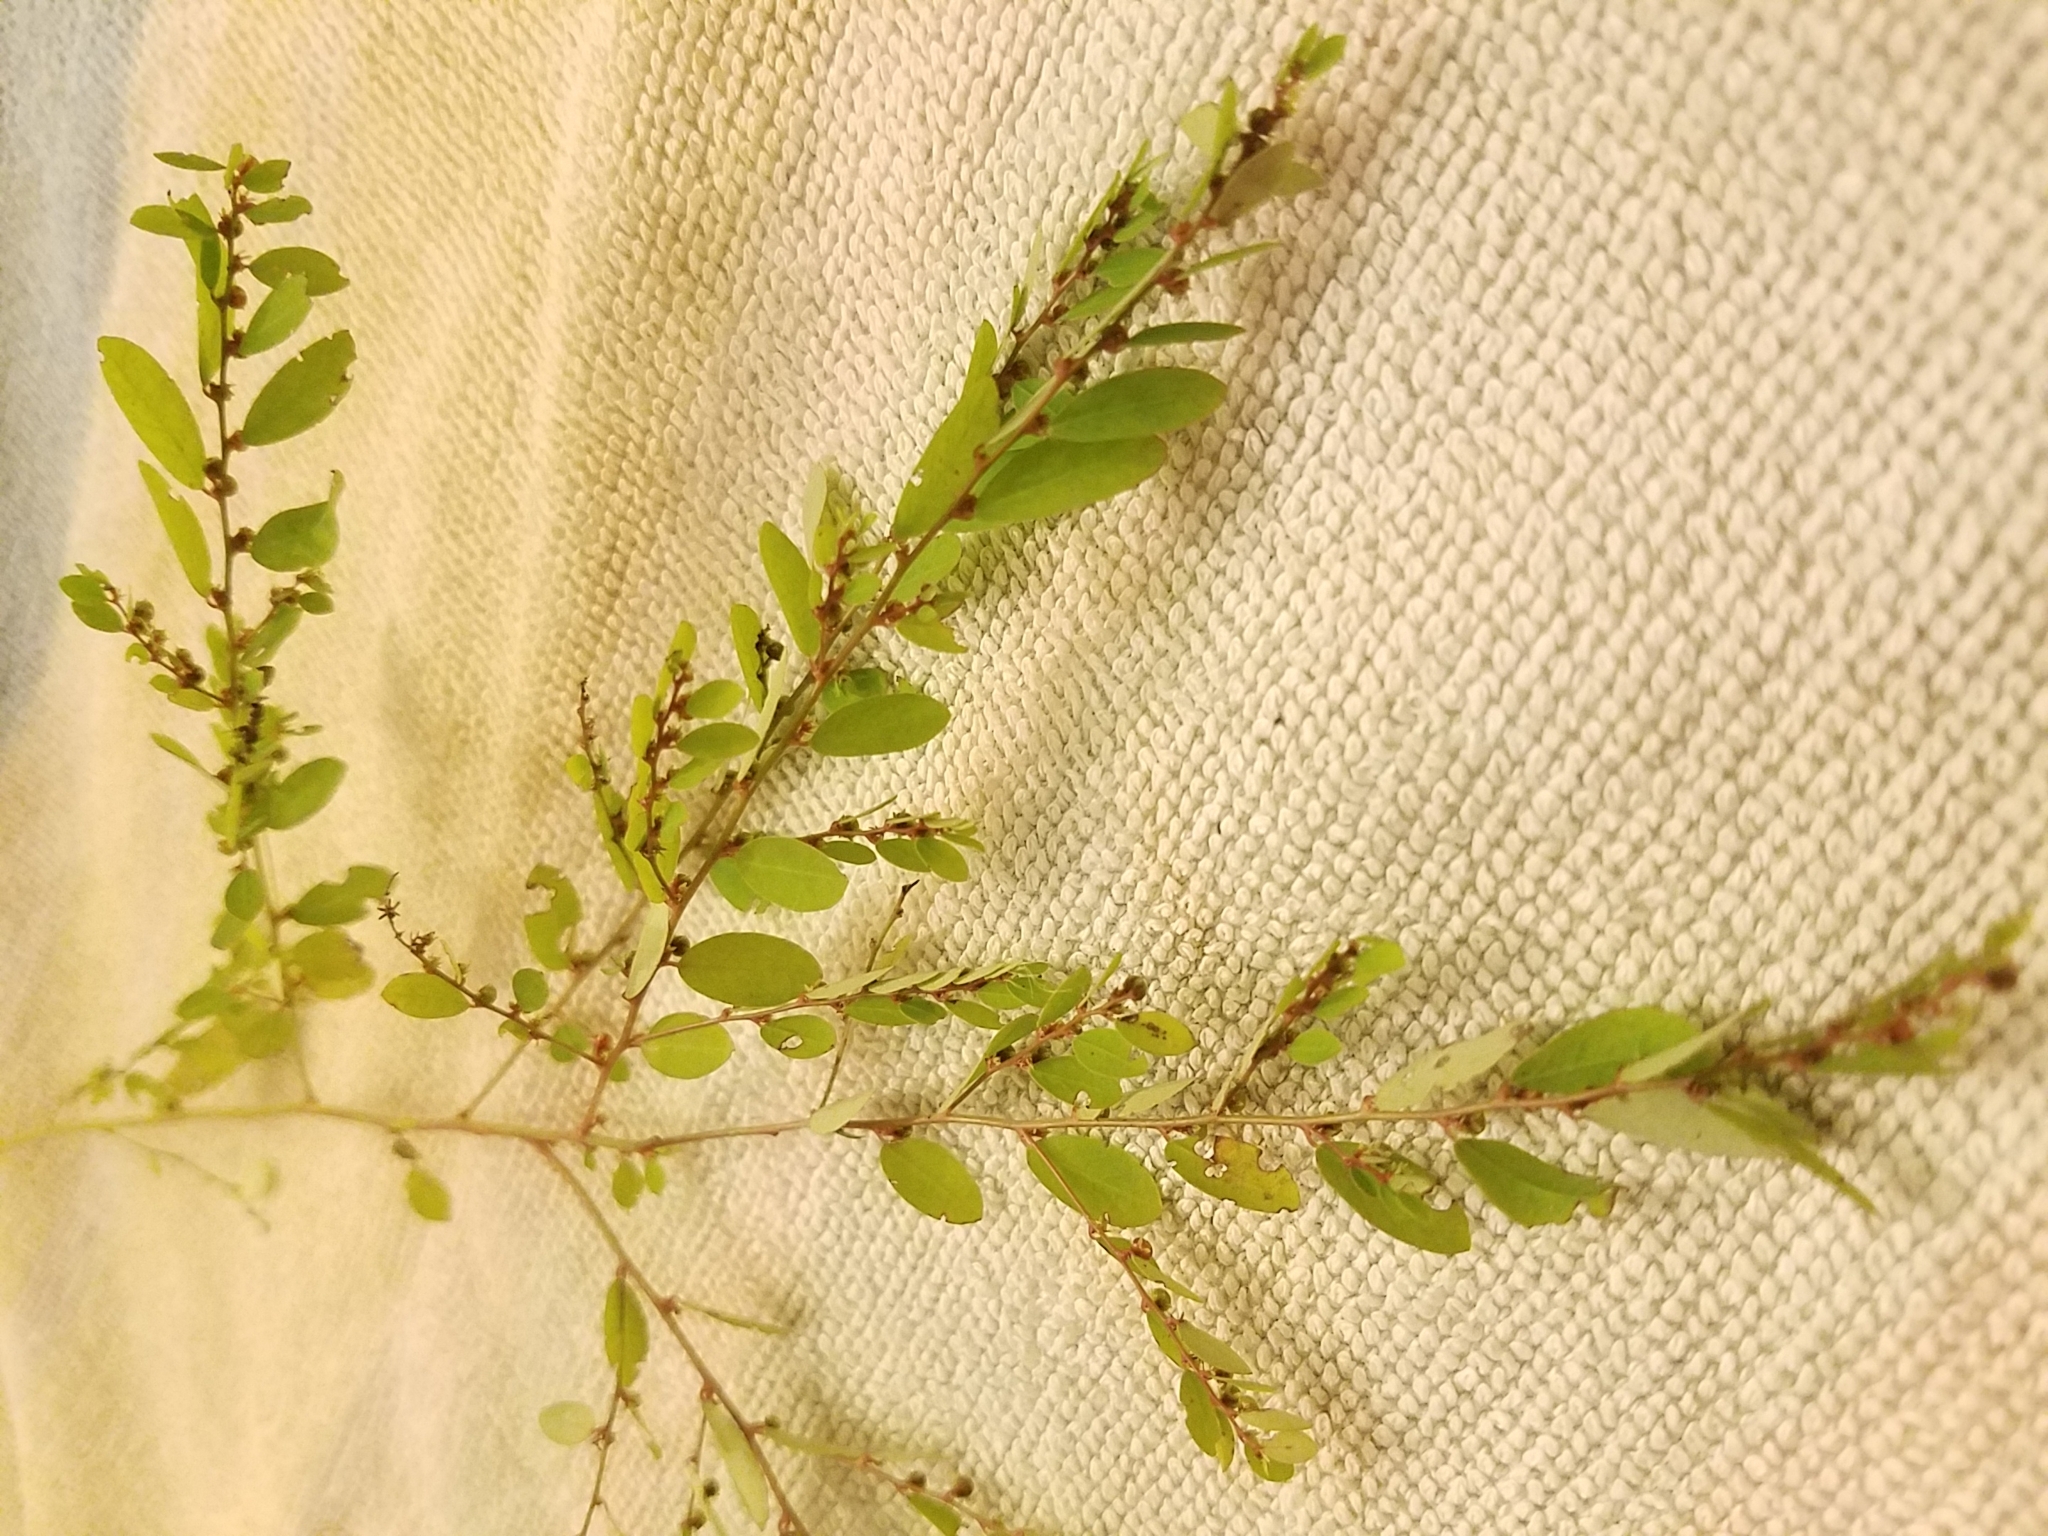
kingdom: Plantae
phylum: Tracheophyta
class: Magnoliopsida
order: Malpighiales
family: Phyllanthaceae
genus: Phyllanthus
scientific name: Phyllanthus caroliniensis
